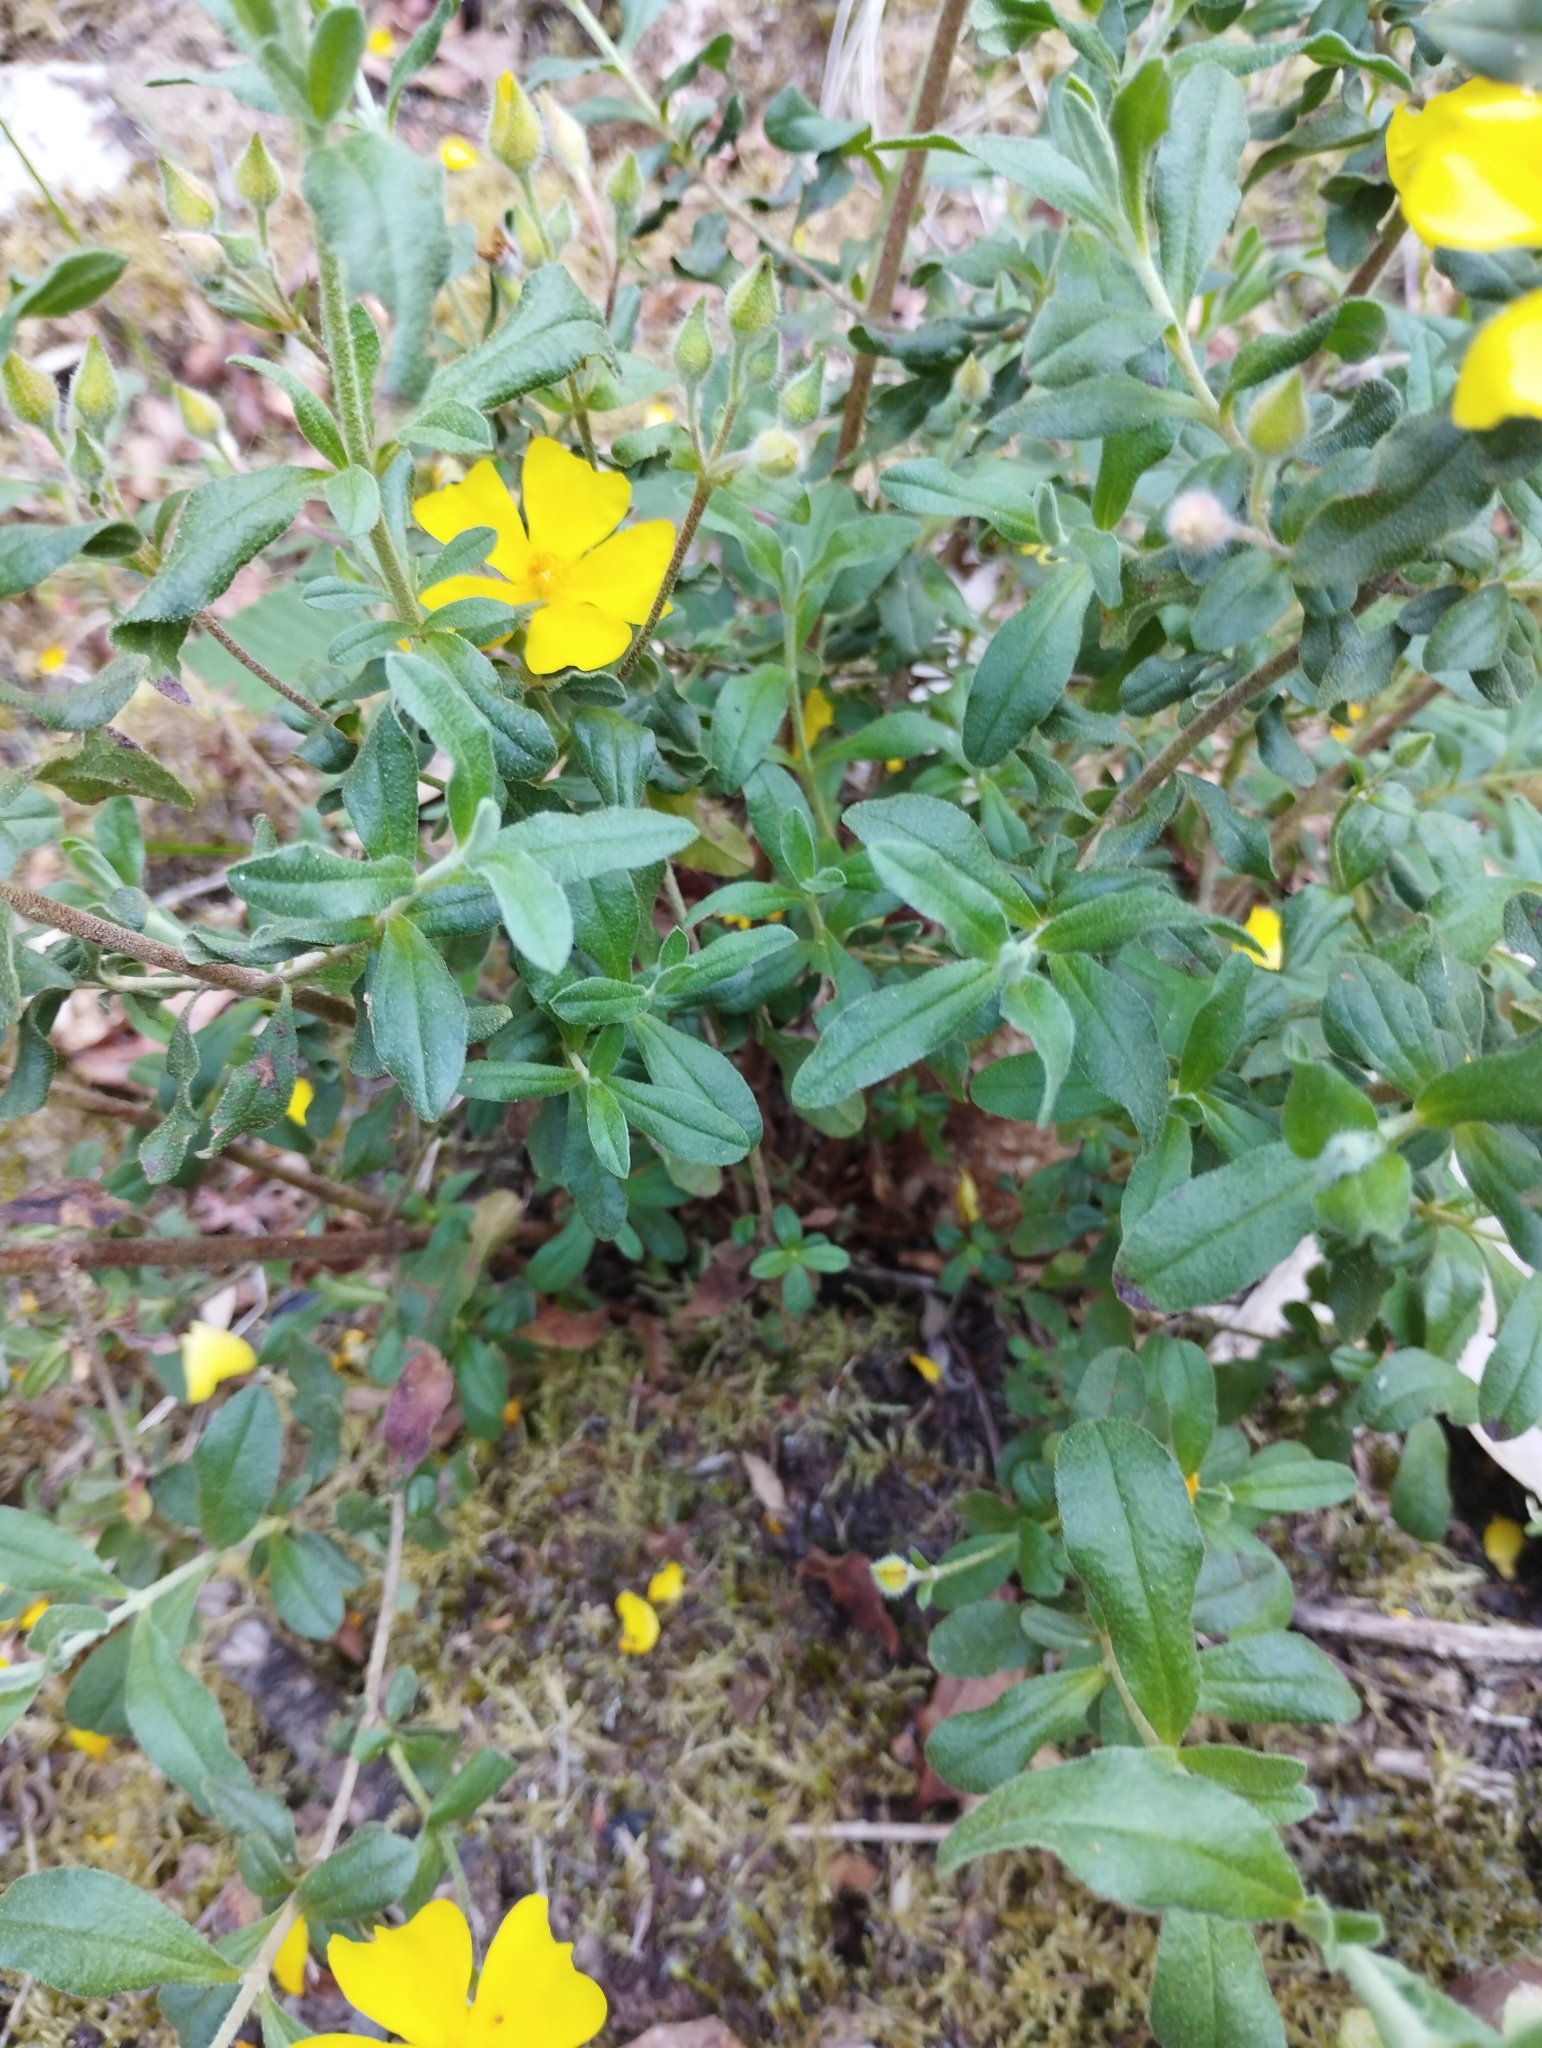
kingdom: Plantae
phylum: Tracheophyta
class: Magnoliopsida
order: Malvales
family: Cistaceae
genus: Halimium
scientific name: Halimium lasianthum
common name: Lisbon false sun-rose
